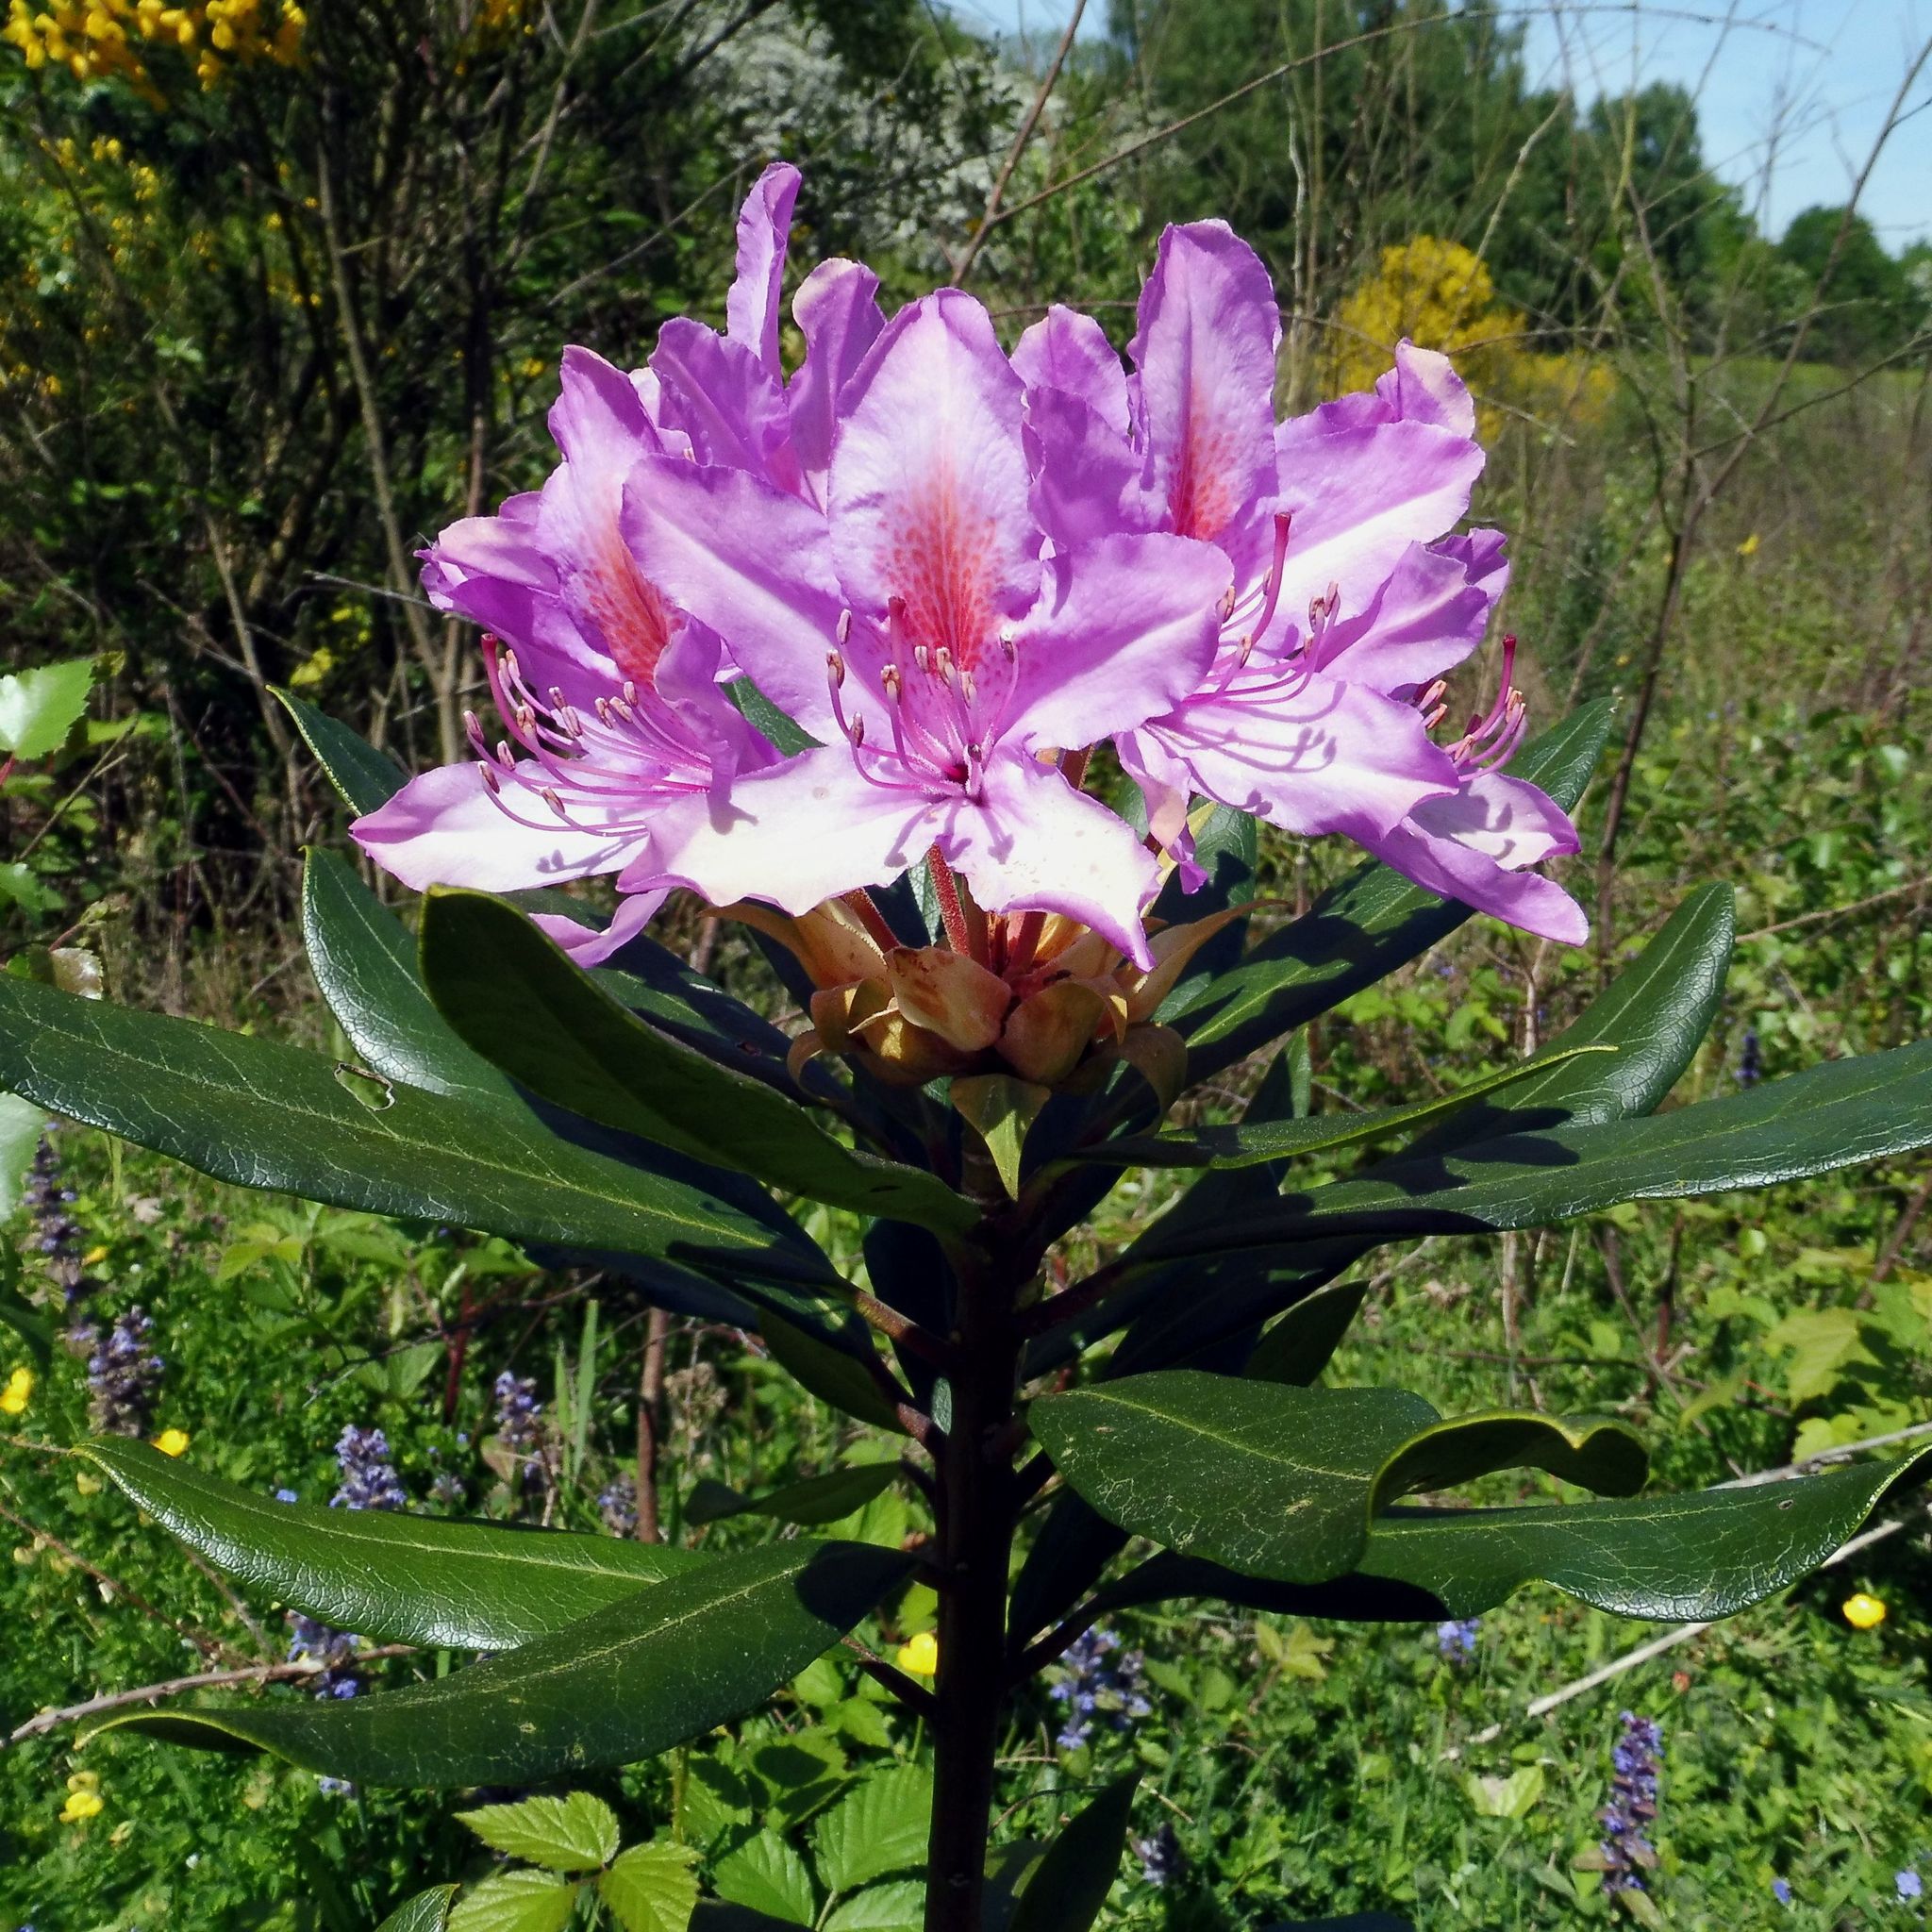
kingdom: Plantae
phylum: Tracheophyta
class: Magnoliopsida
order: Ericales
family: Ericaceae
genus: Rhododendron
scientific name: Rhododendron ponticum
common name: Rhododendron
